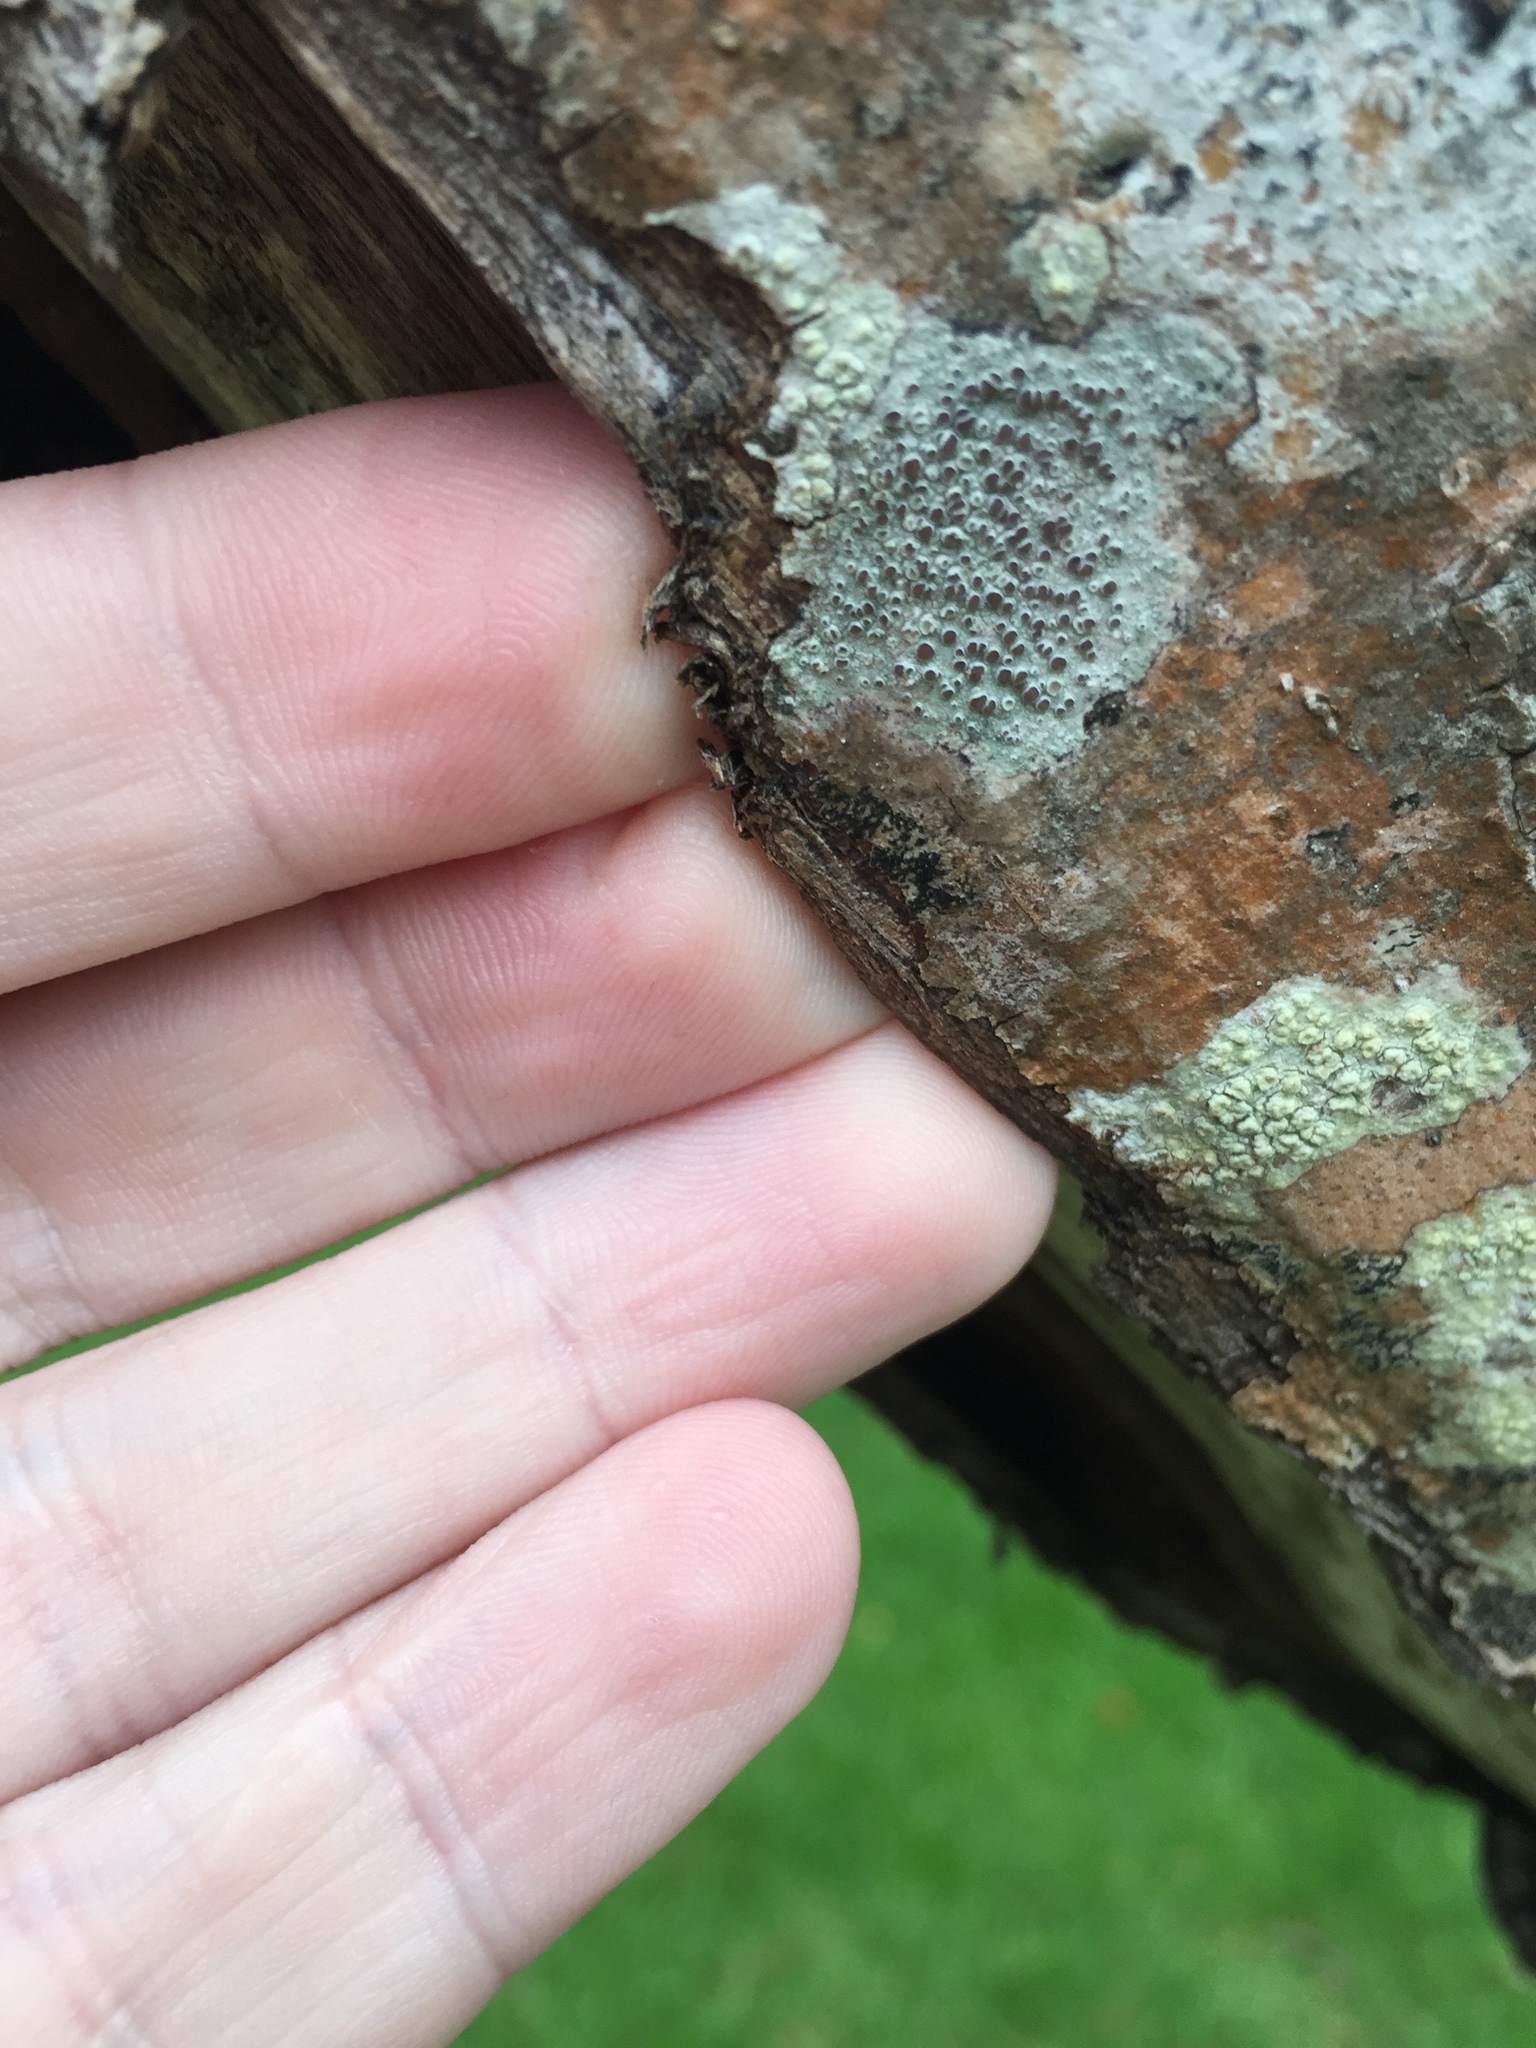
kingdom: Fungi
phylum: Ascomycota
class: Lecanoromycetes
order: Lecanorales
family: Lecanoraceae
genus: Lecanora
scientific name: Lecanora argentata
